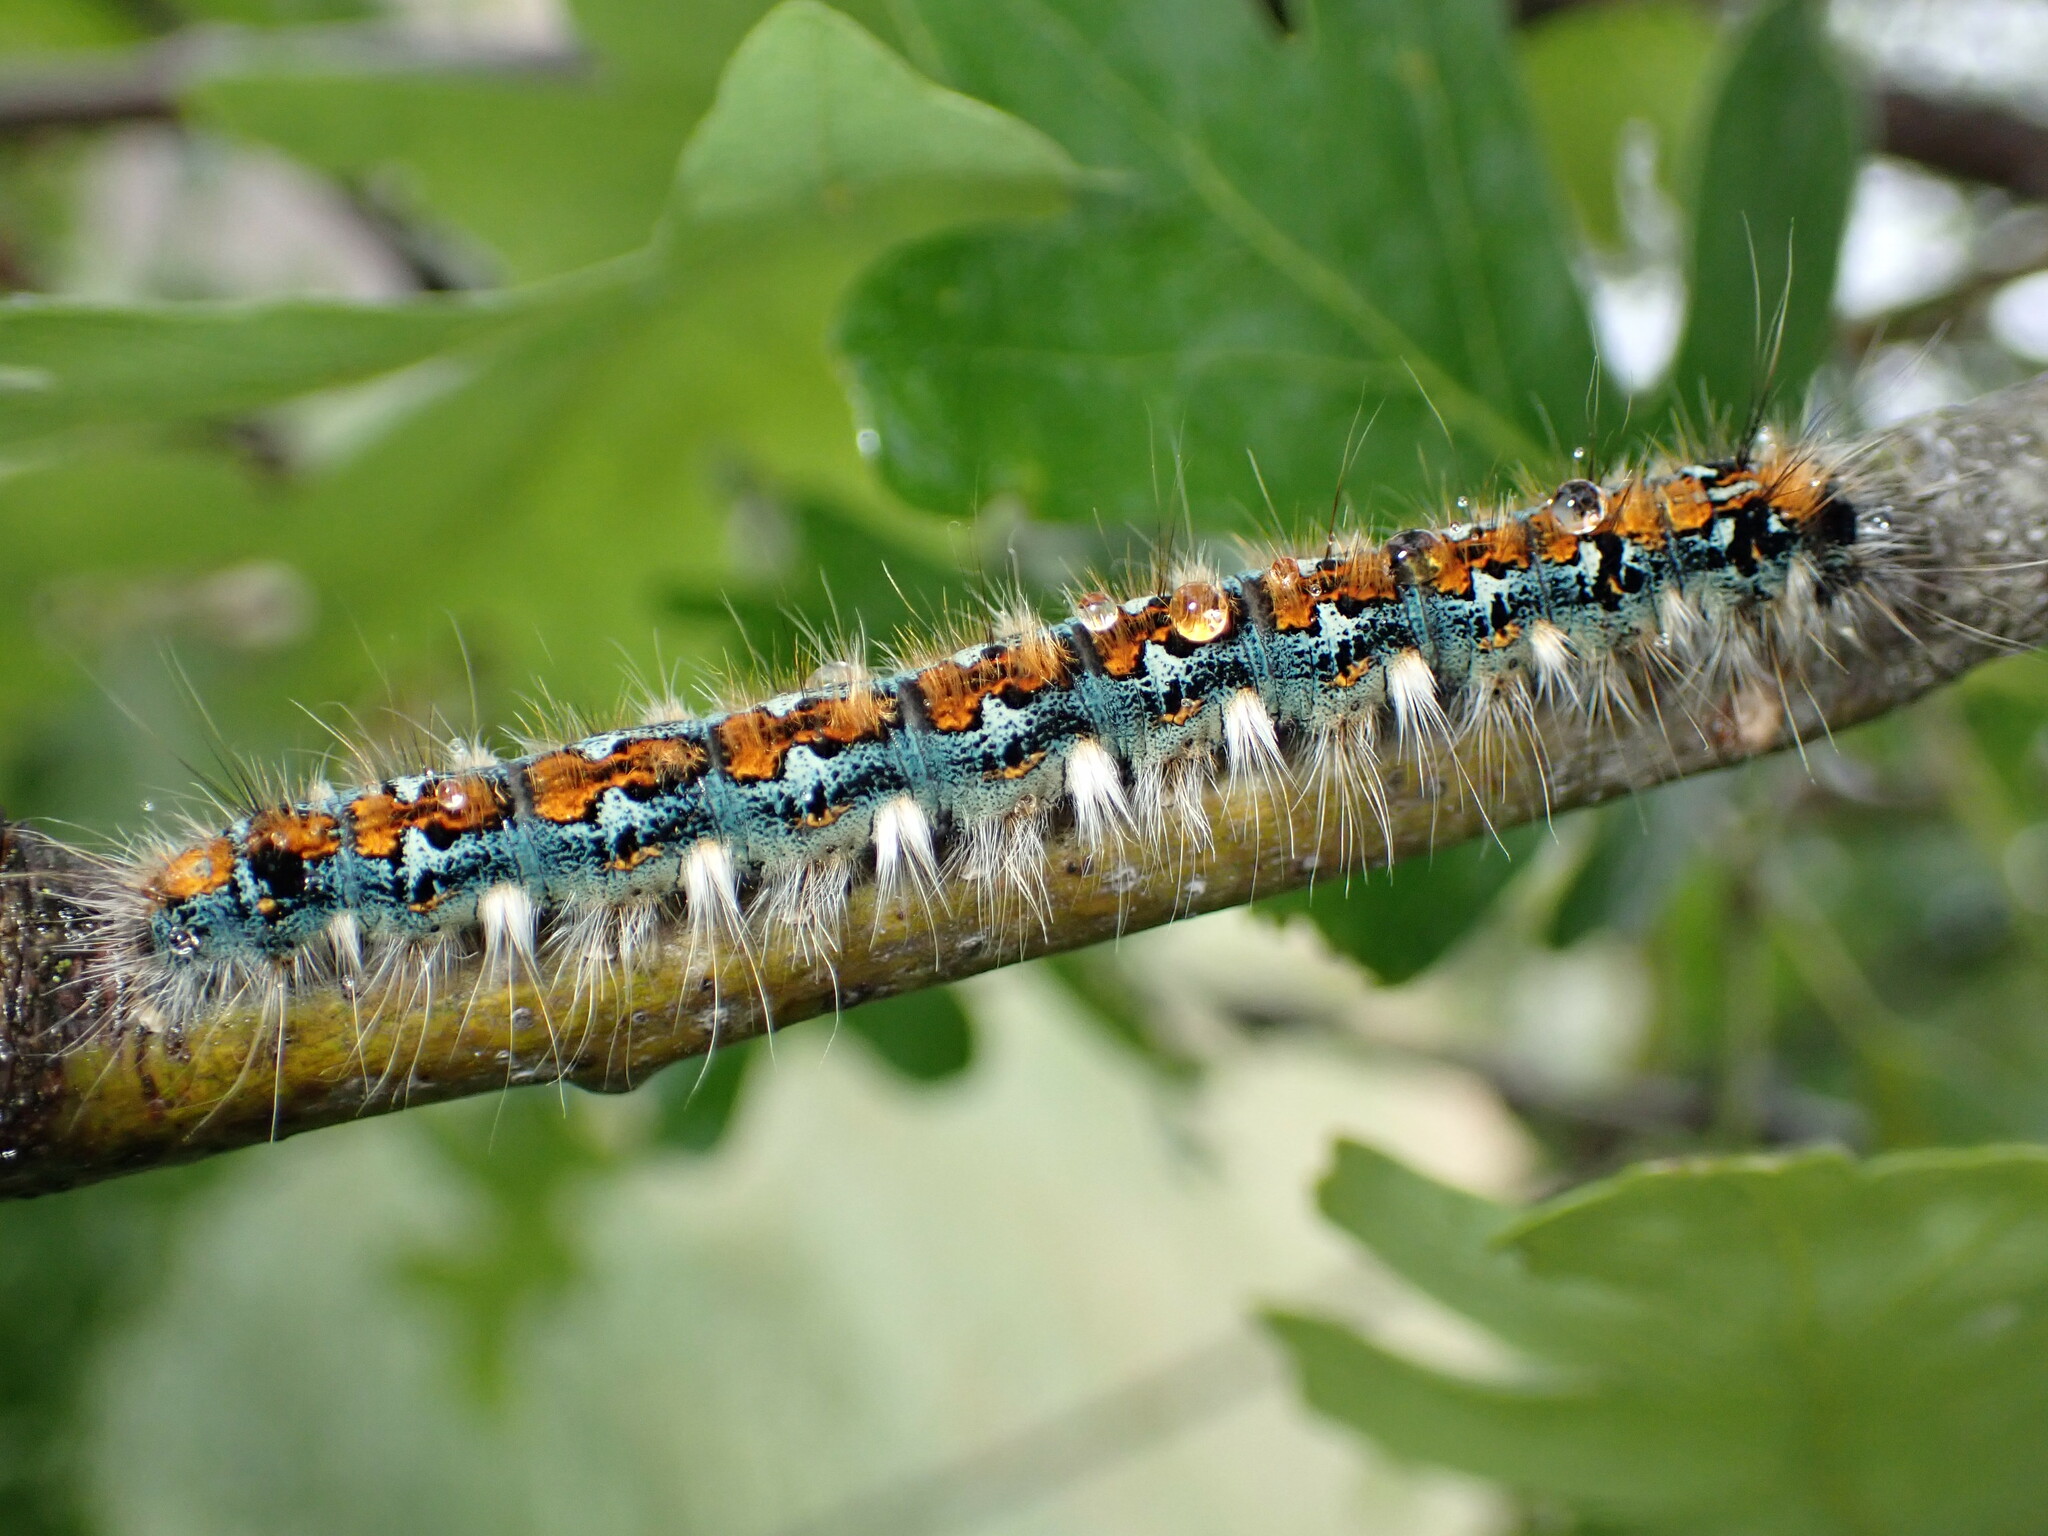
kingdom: Animalia
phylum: Arthropoda
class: Insecta
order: Lepidoptera
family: Lasiocampidae
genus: Malacosoma
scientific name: Malacosoma constricta
